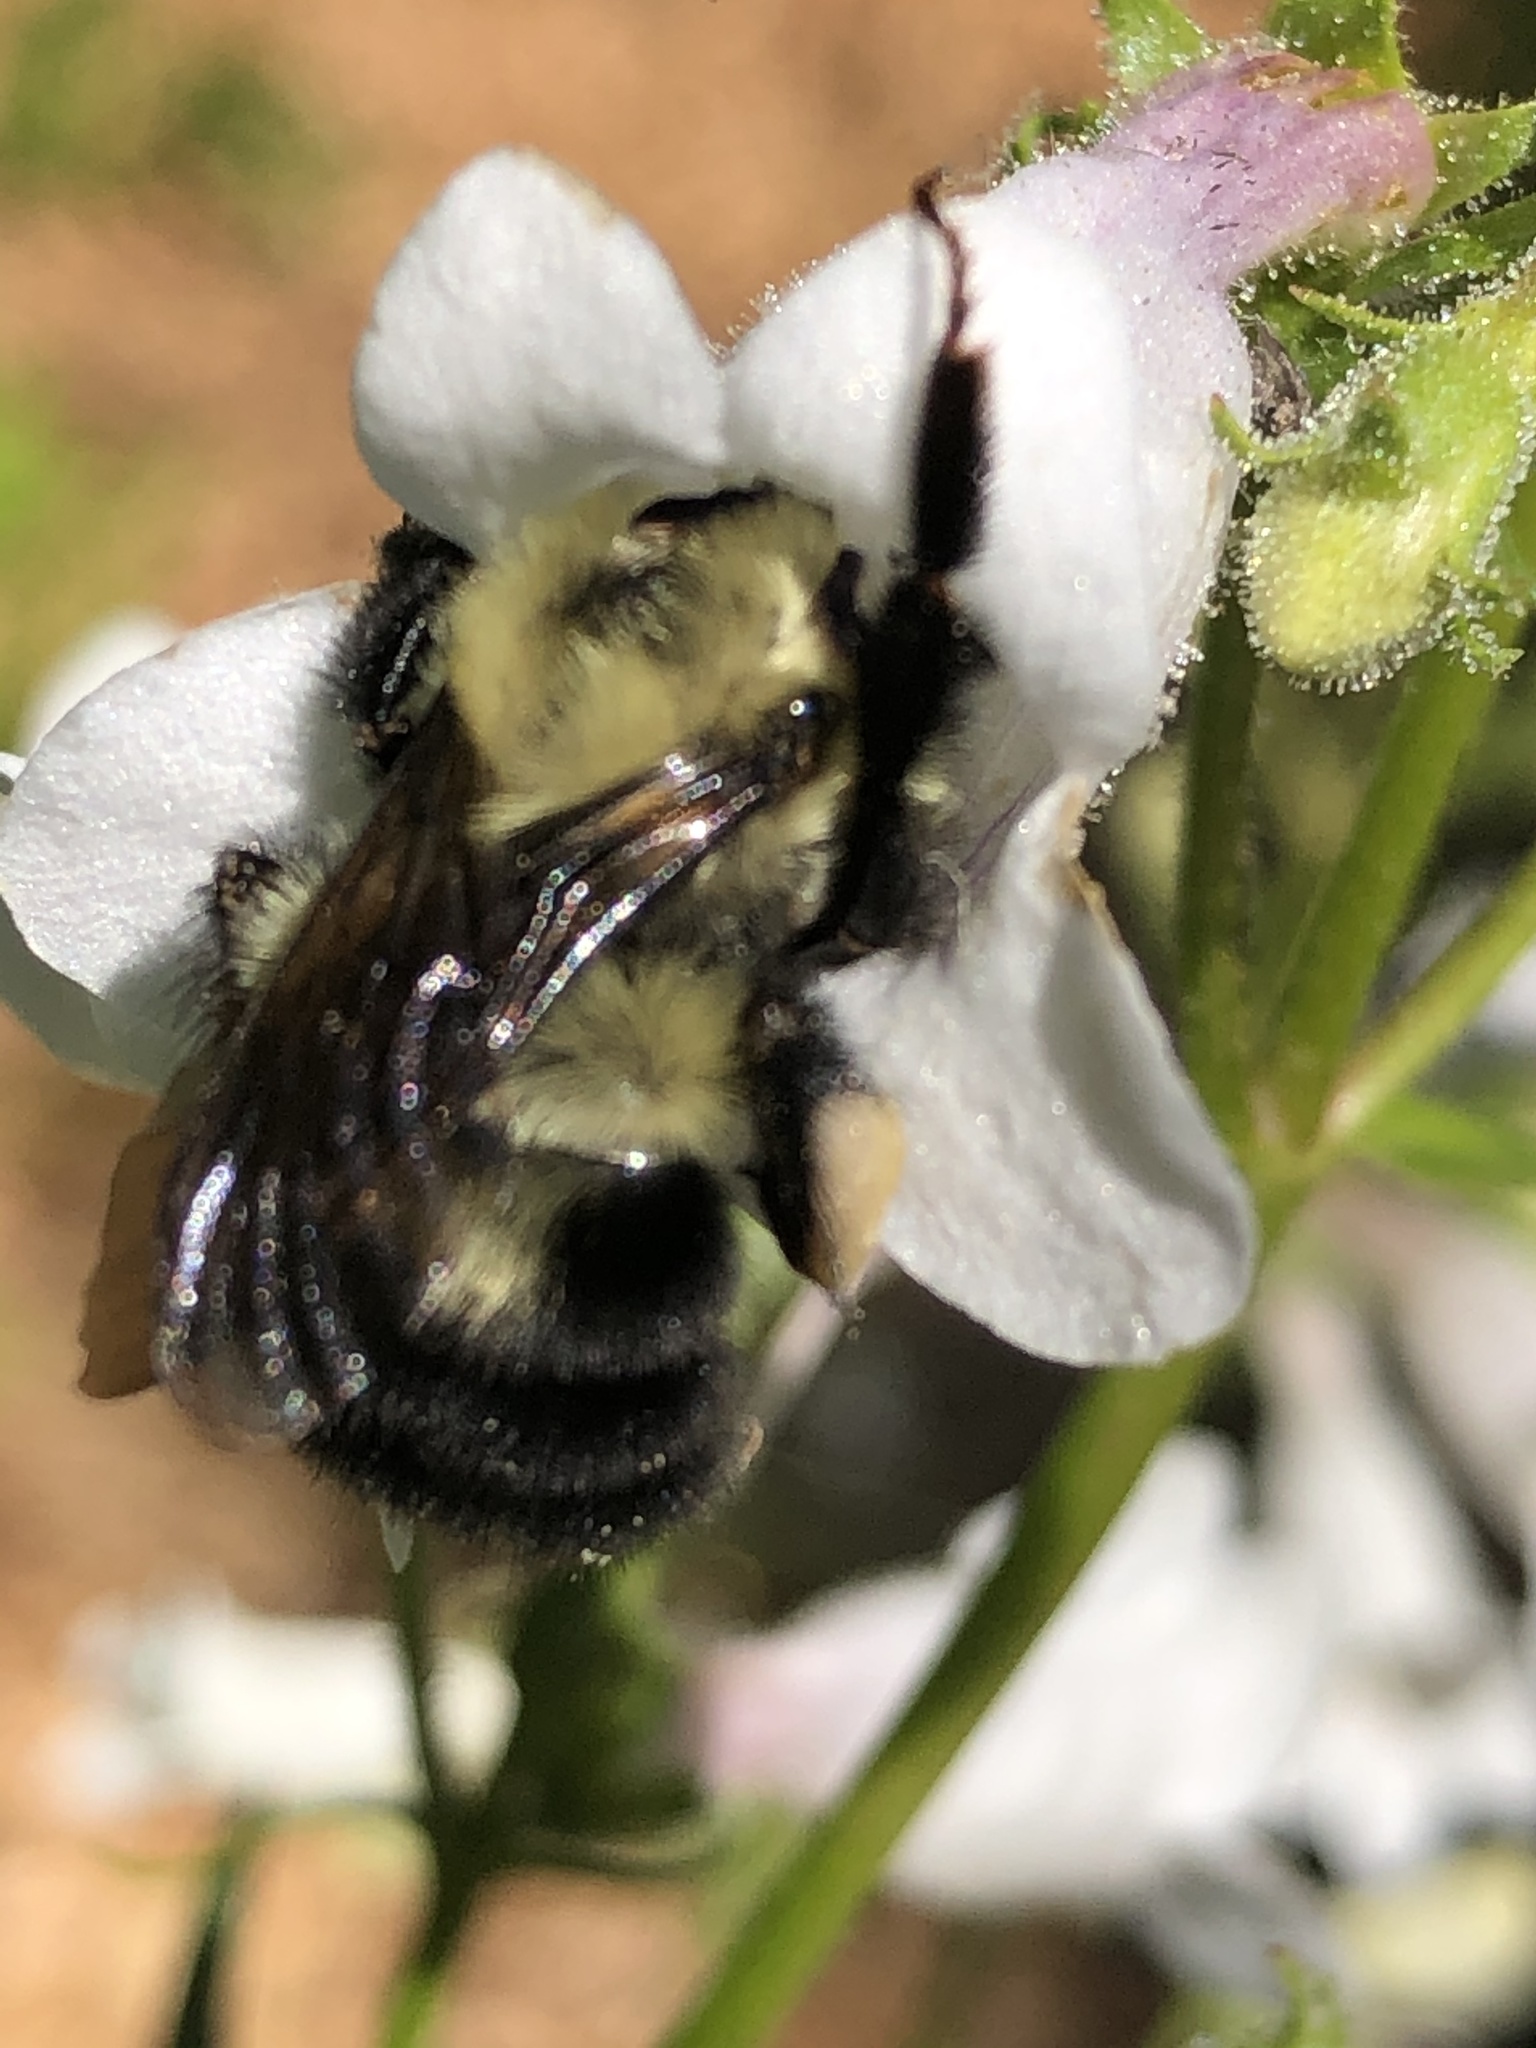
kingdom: Animalia
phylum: Arthropoda
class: Insecta
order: Hymenoptera
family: Apidae
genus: Bombus
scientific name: Bombus bimaculatus
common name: Two-spotted bumble bee
